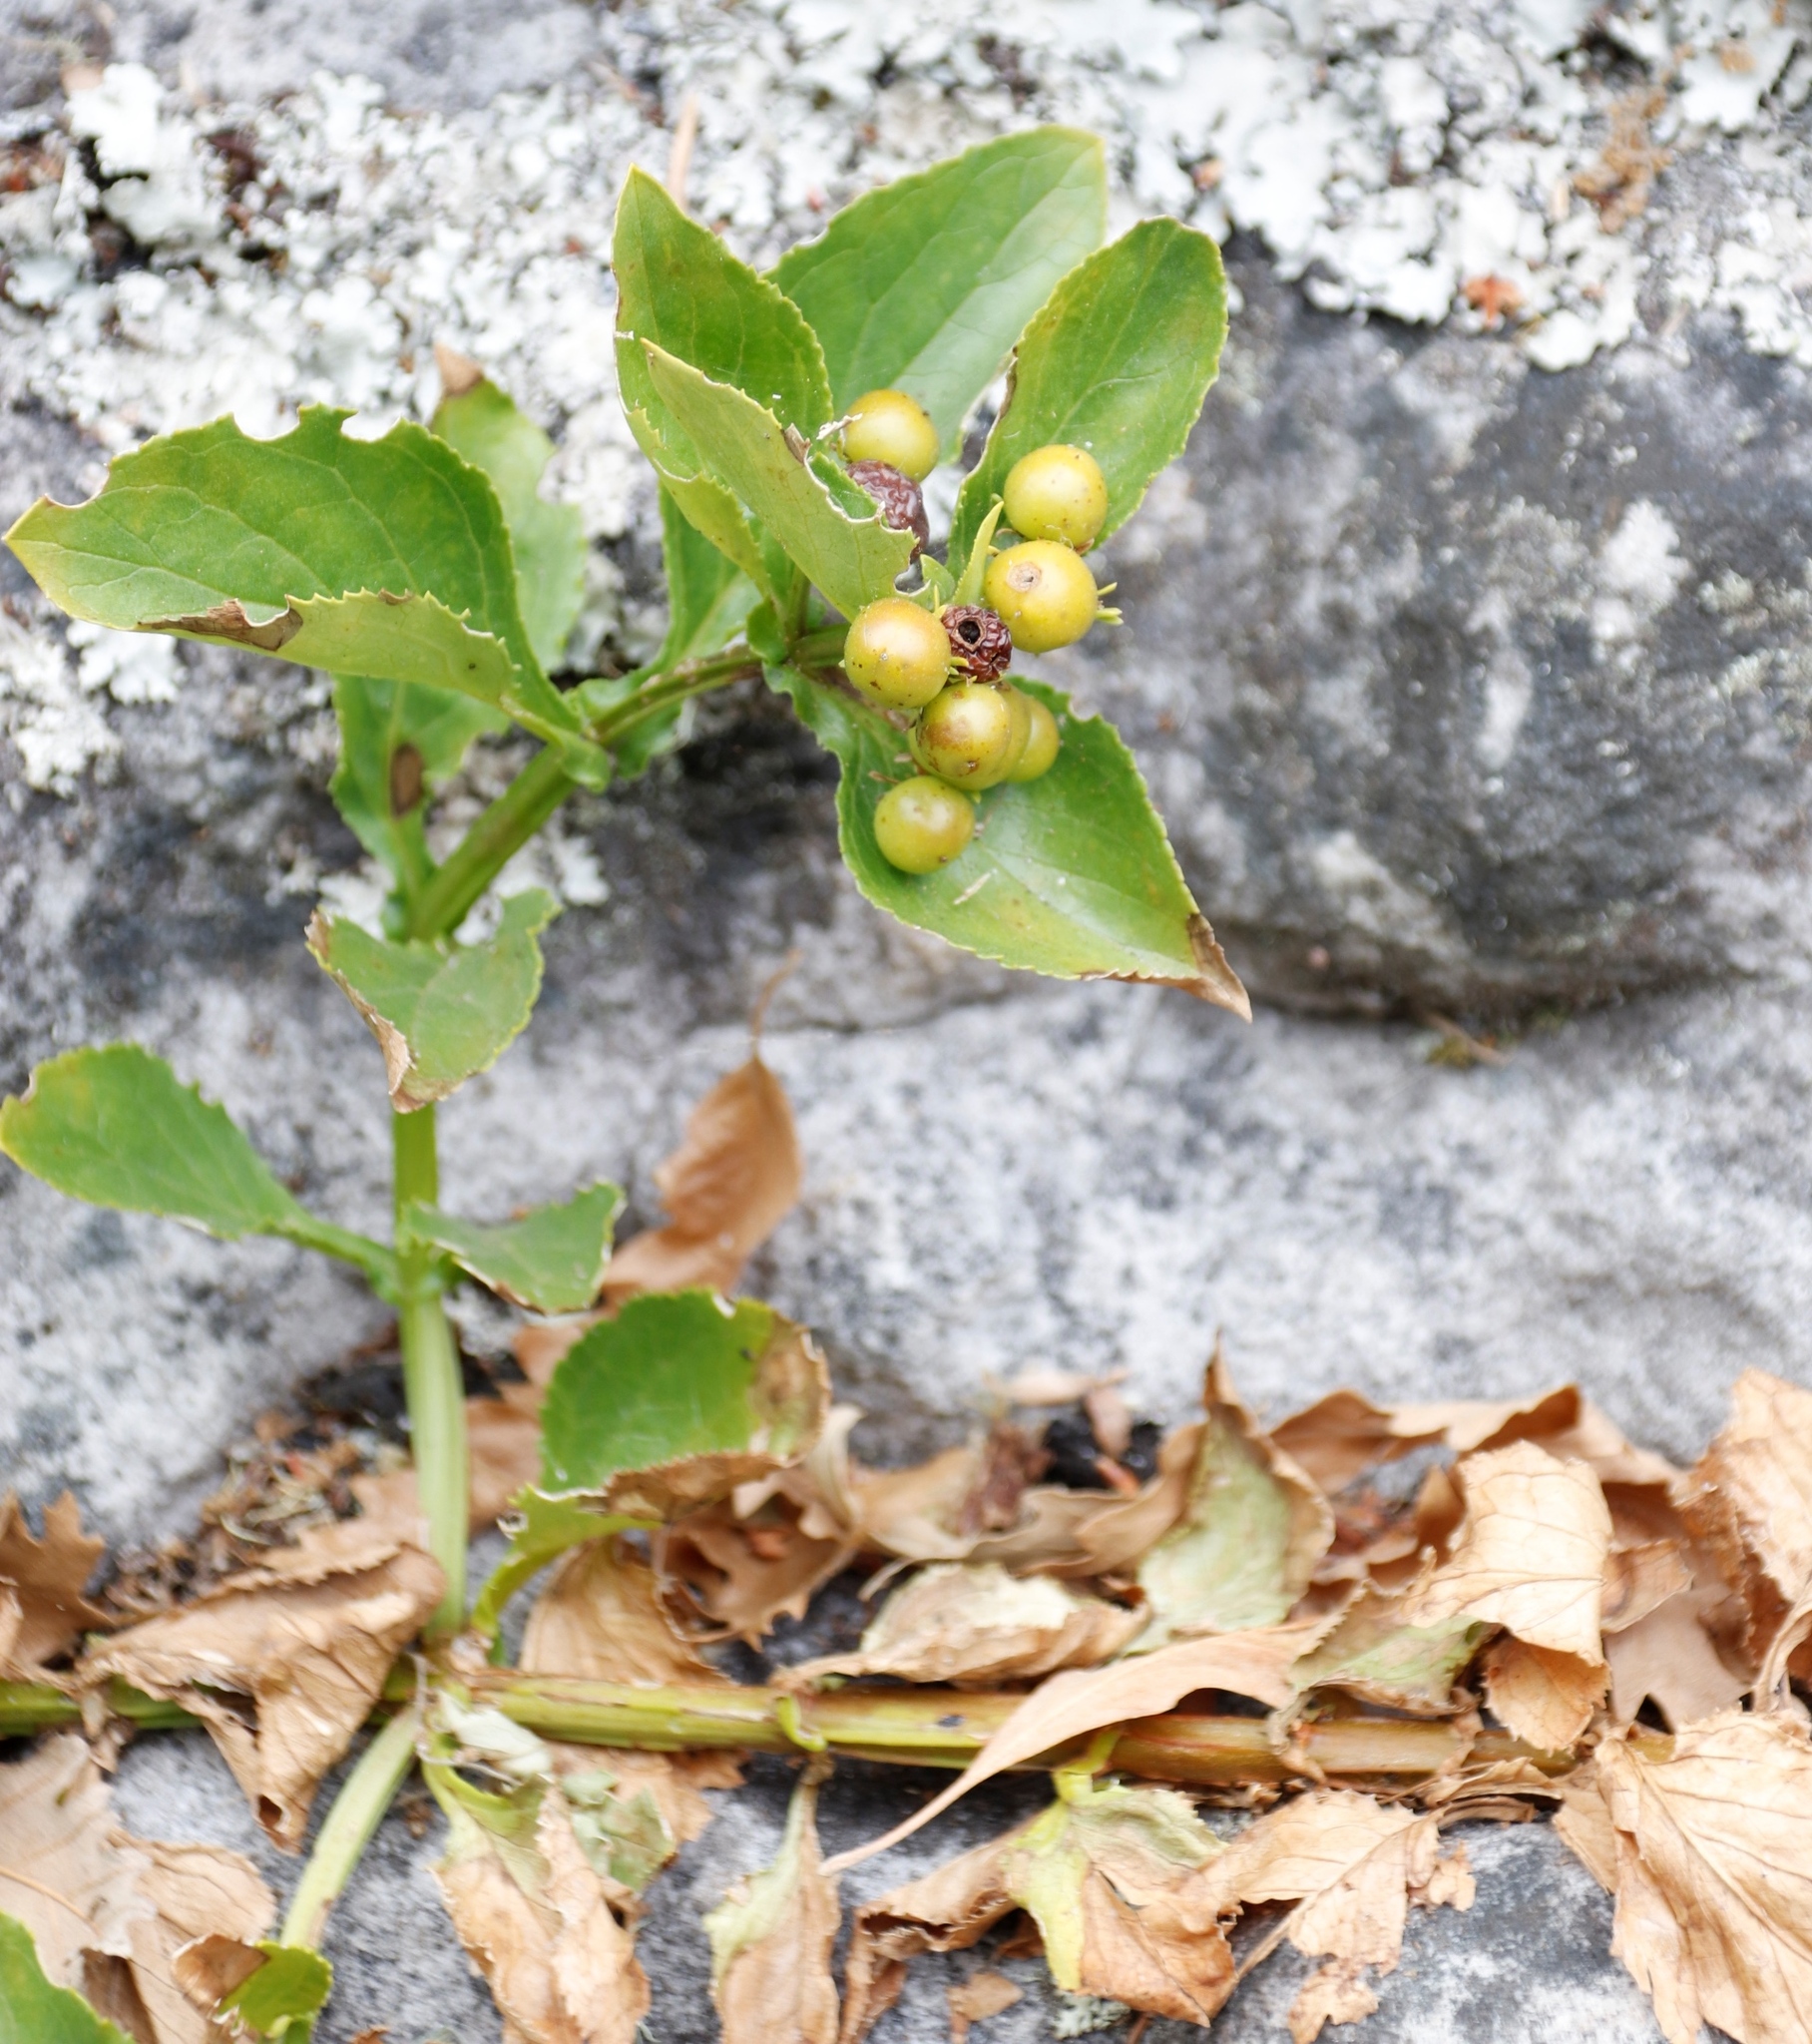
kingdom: Plantae
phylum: Tracheophyta
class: Magnoliopsida
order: Lamiales
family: Scrophulariaceae
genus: Teedia
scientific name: Teedia lucida
